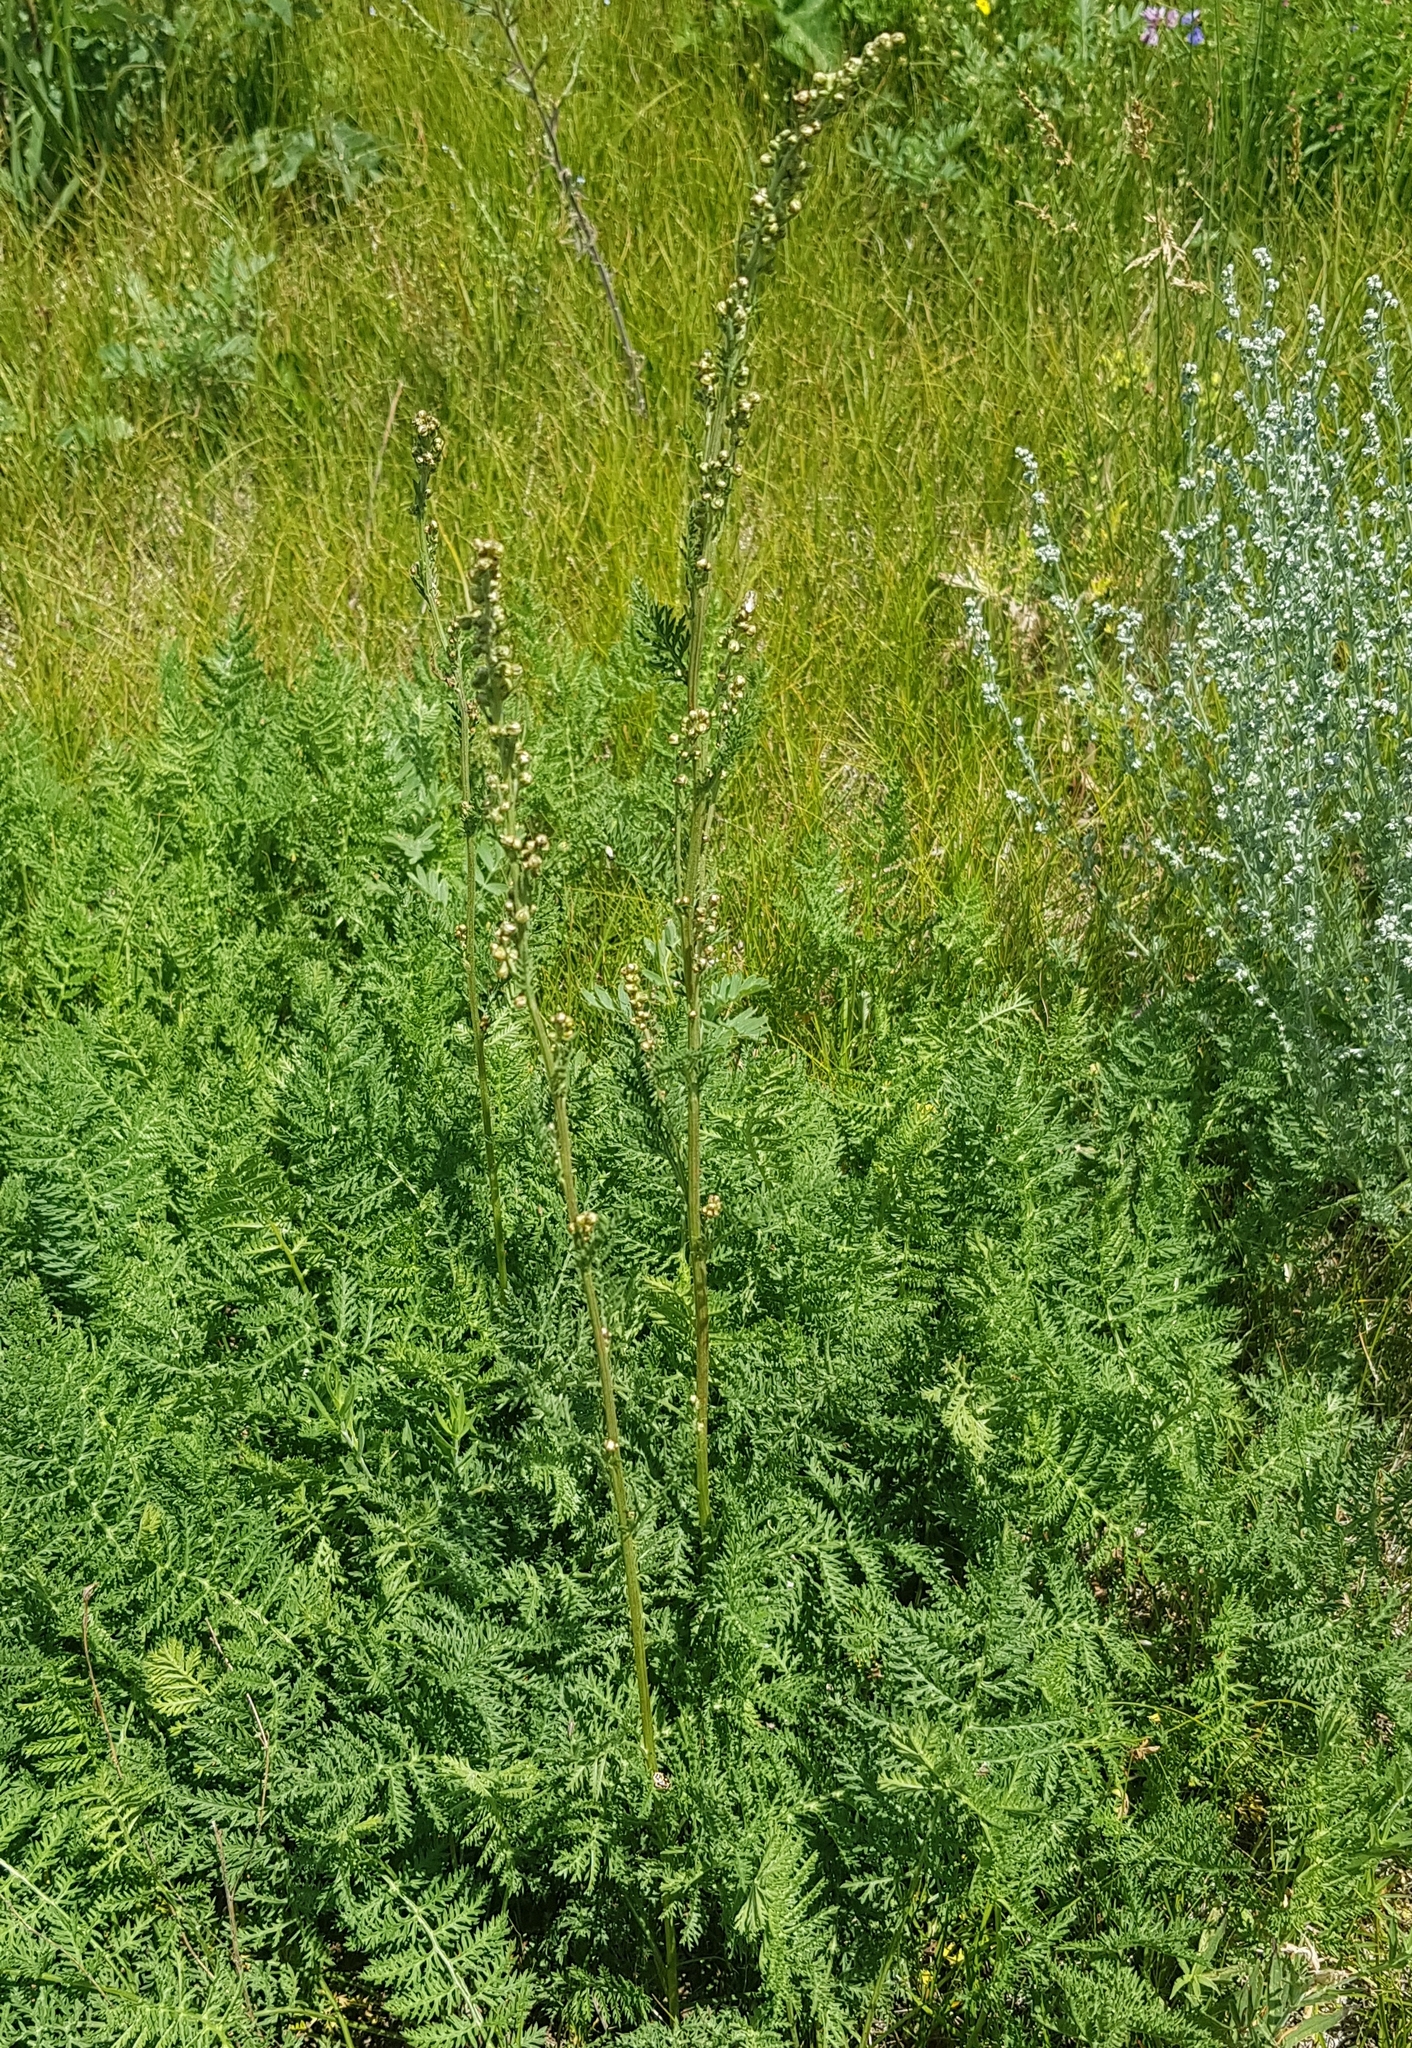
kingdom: Plantae
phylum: Tracheophyta
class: Magnoliopsida
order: Asterales
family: Asteraceae
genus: Artemisia
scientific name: Artemisia tanacetifolia
